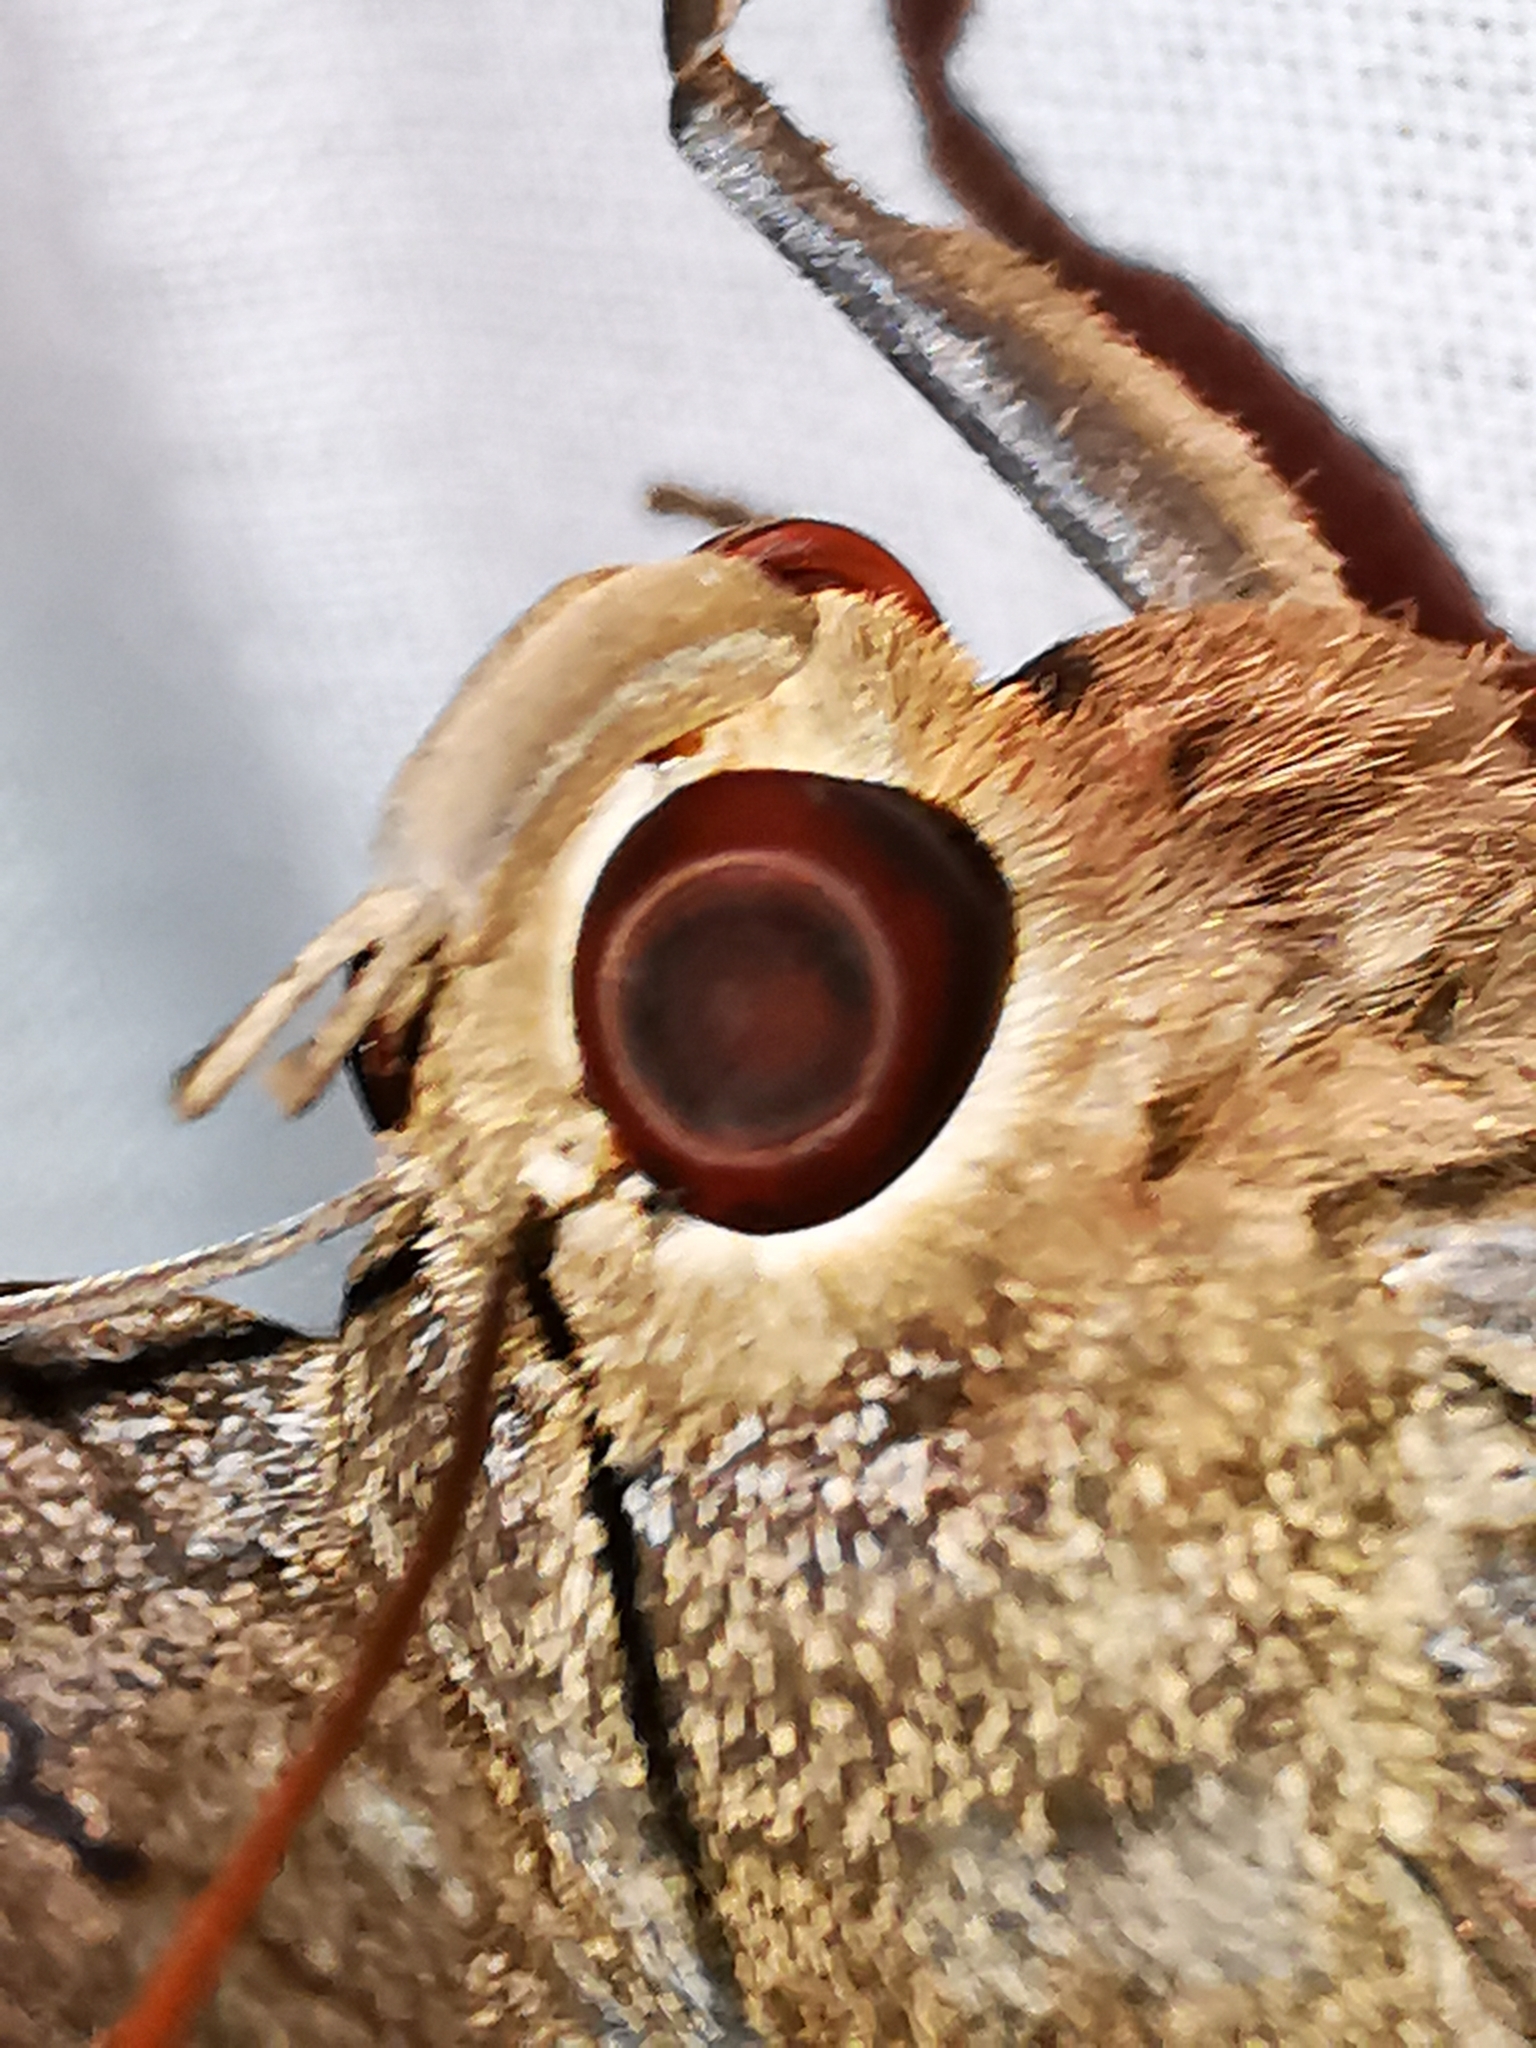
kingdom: Animalia
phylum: Arthropoda
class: Insecta
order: Lepidoptera
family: Erebidae
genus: Ascalapha
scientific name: Ascalapha odorata
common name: Black witch
